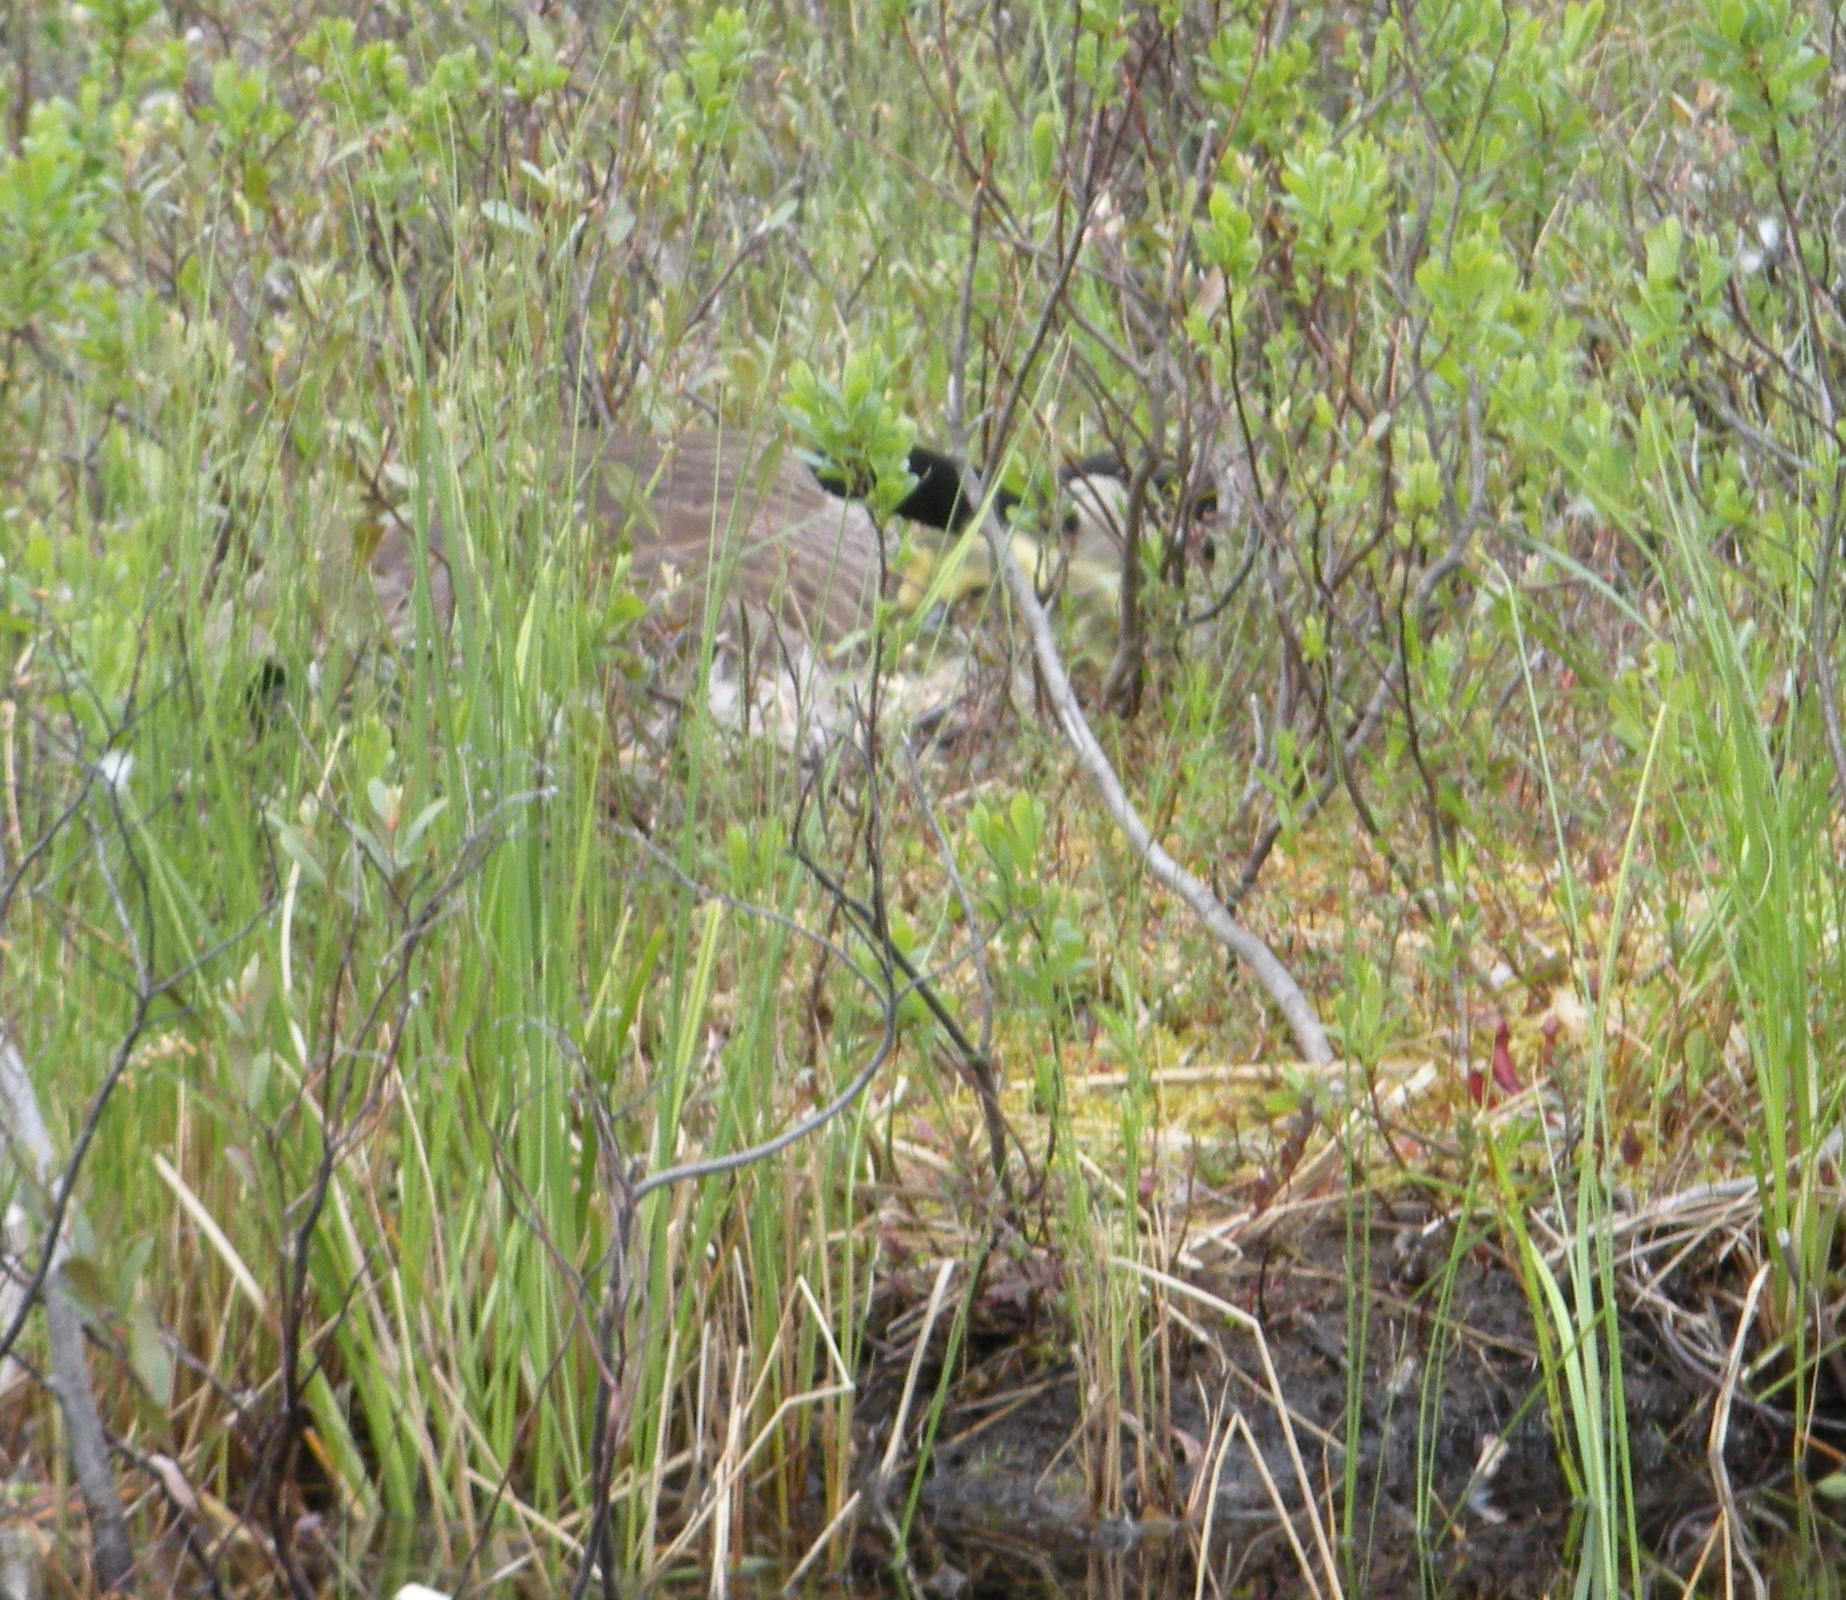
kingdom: Animalia
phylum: Chordata
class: Aves
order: Anseriformes
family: Anatidae
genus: Branta
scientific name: Branta canadensis
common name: Canada goose
